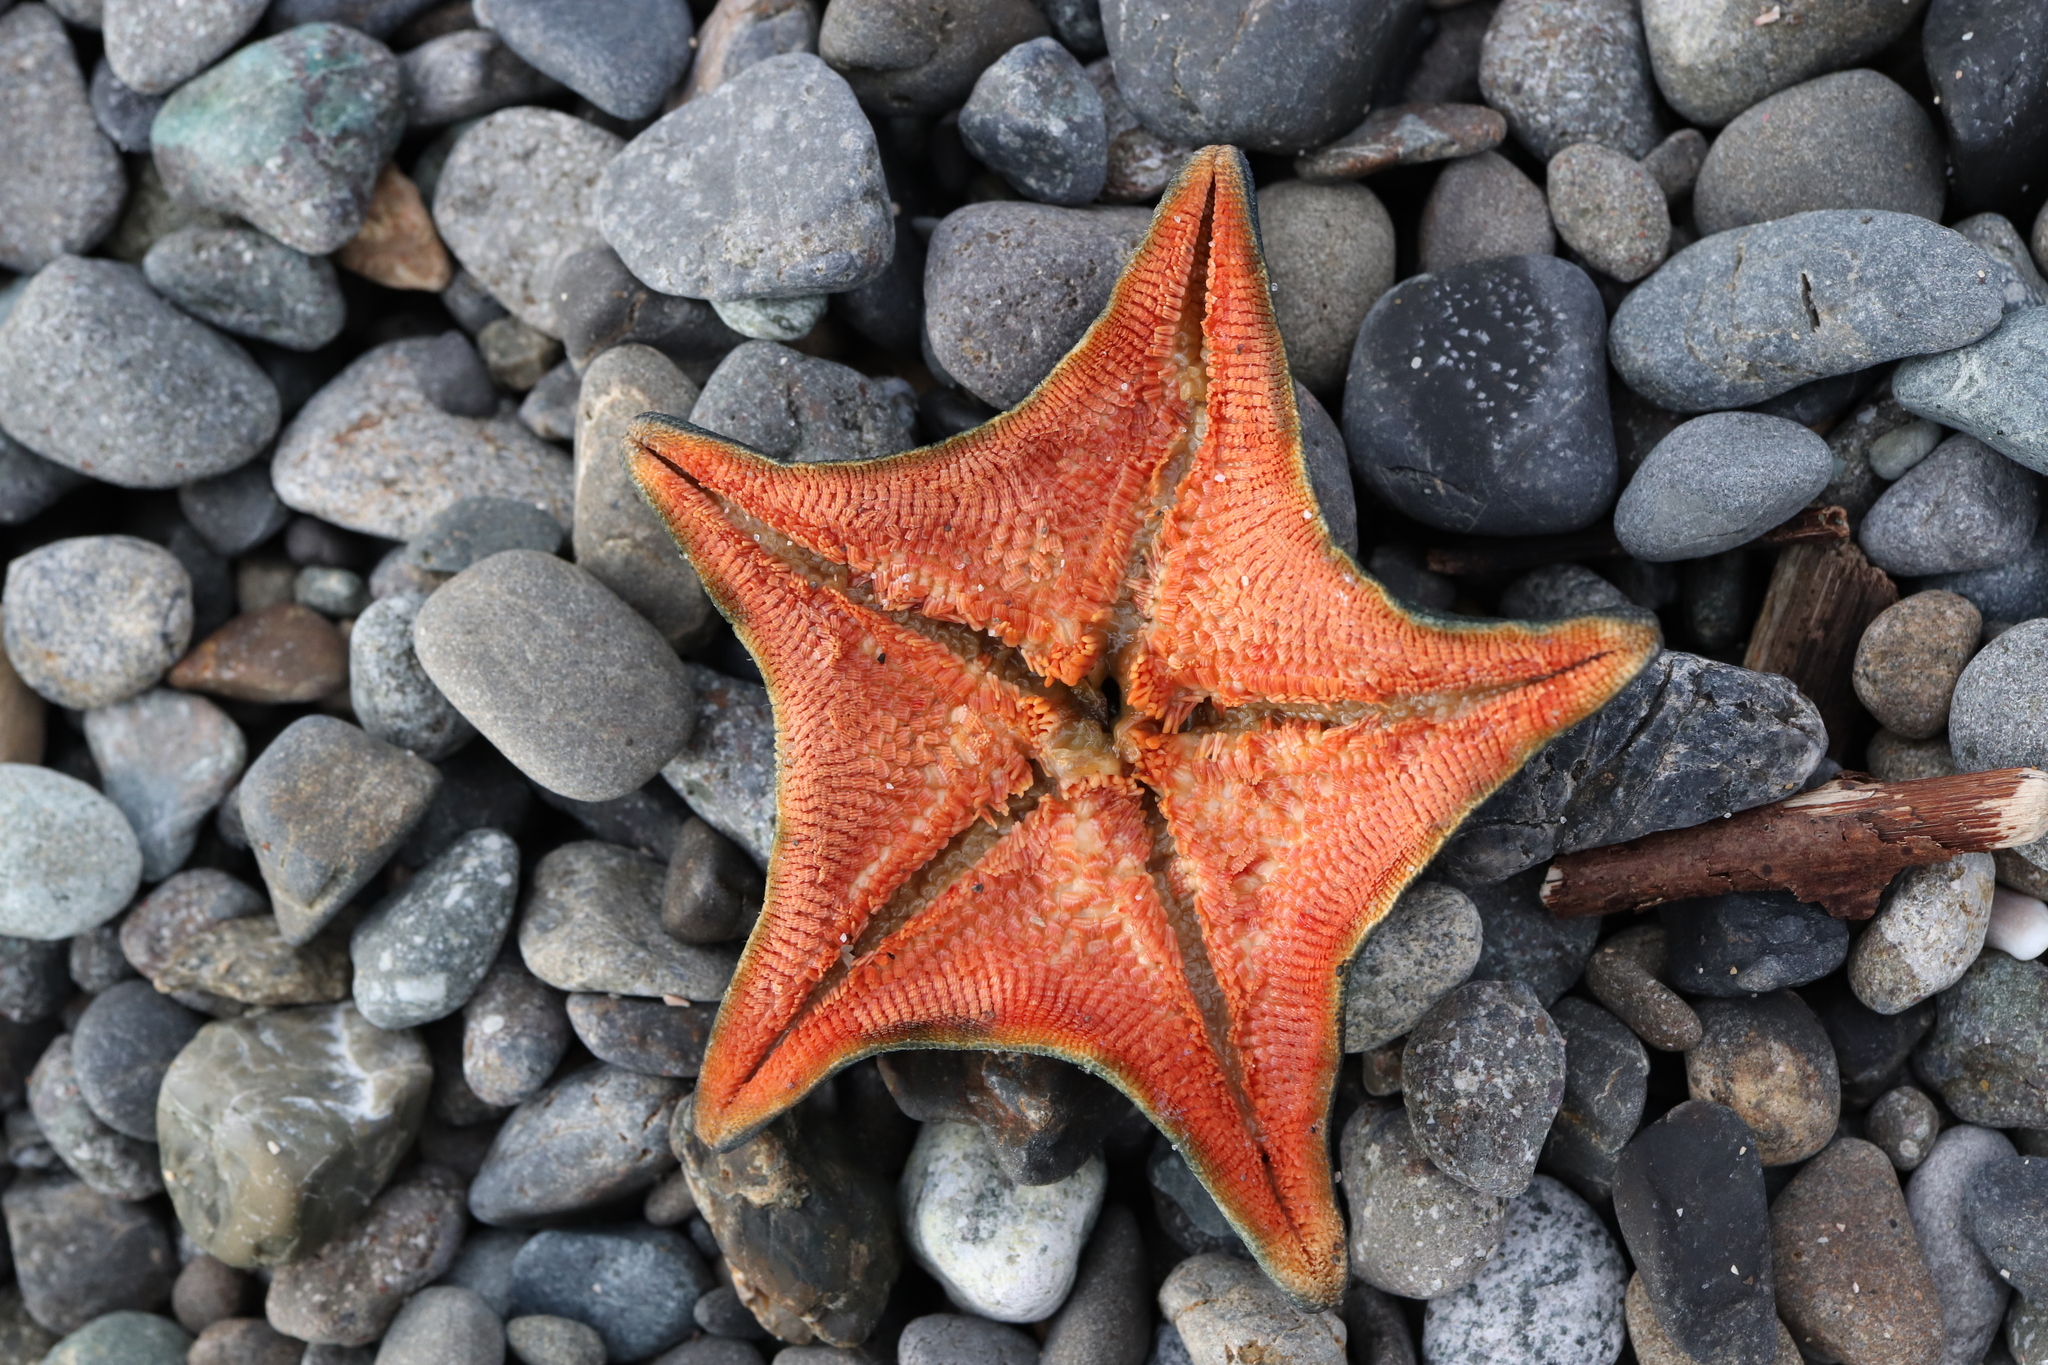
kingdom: Animalia
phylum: Echinodermata
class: Asteroidea
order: Valvatida
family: Asterinidae
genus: Patiria
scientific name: Patiria pectinifera
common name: Blue bat star
